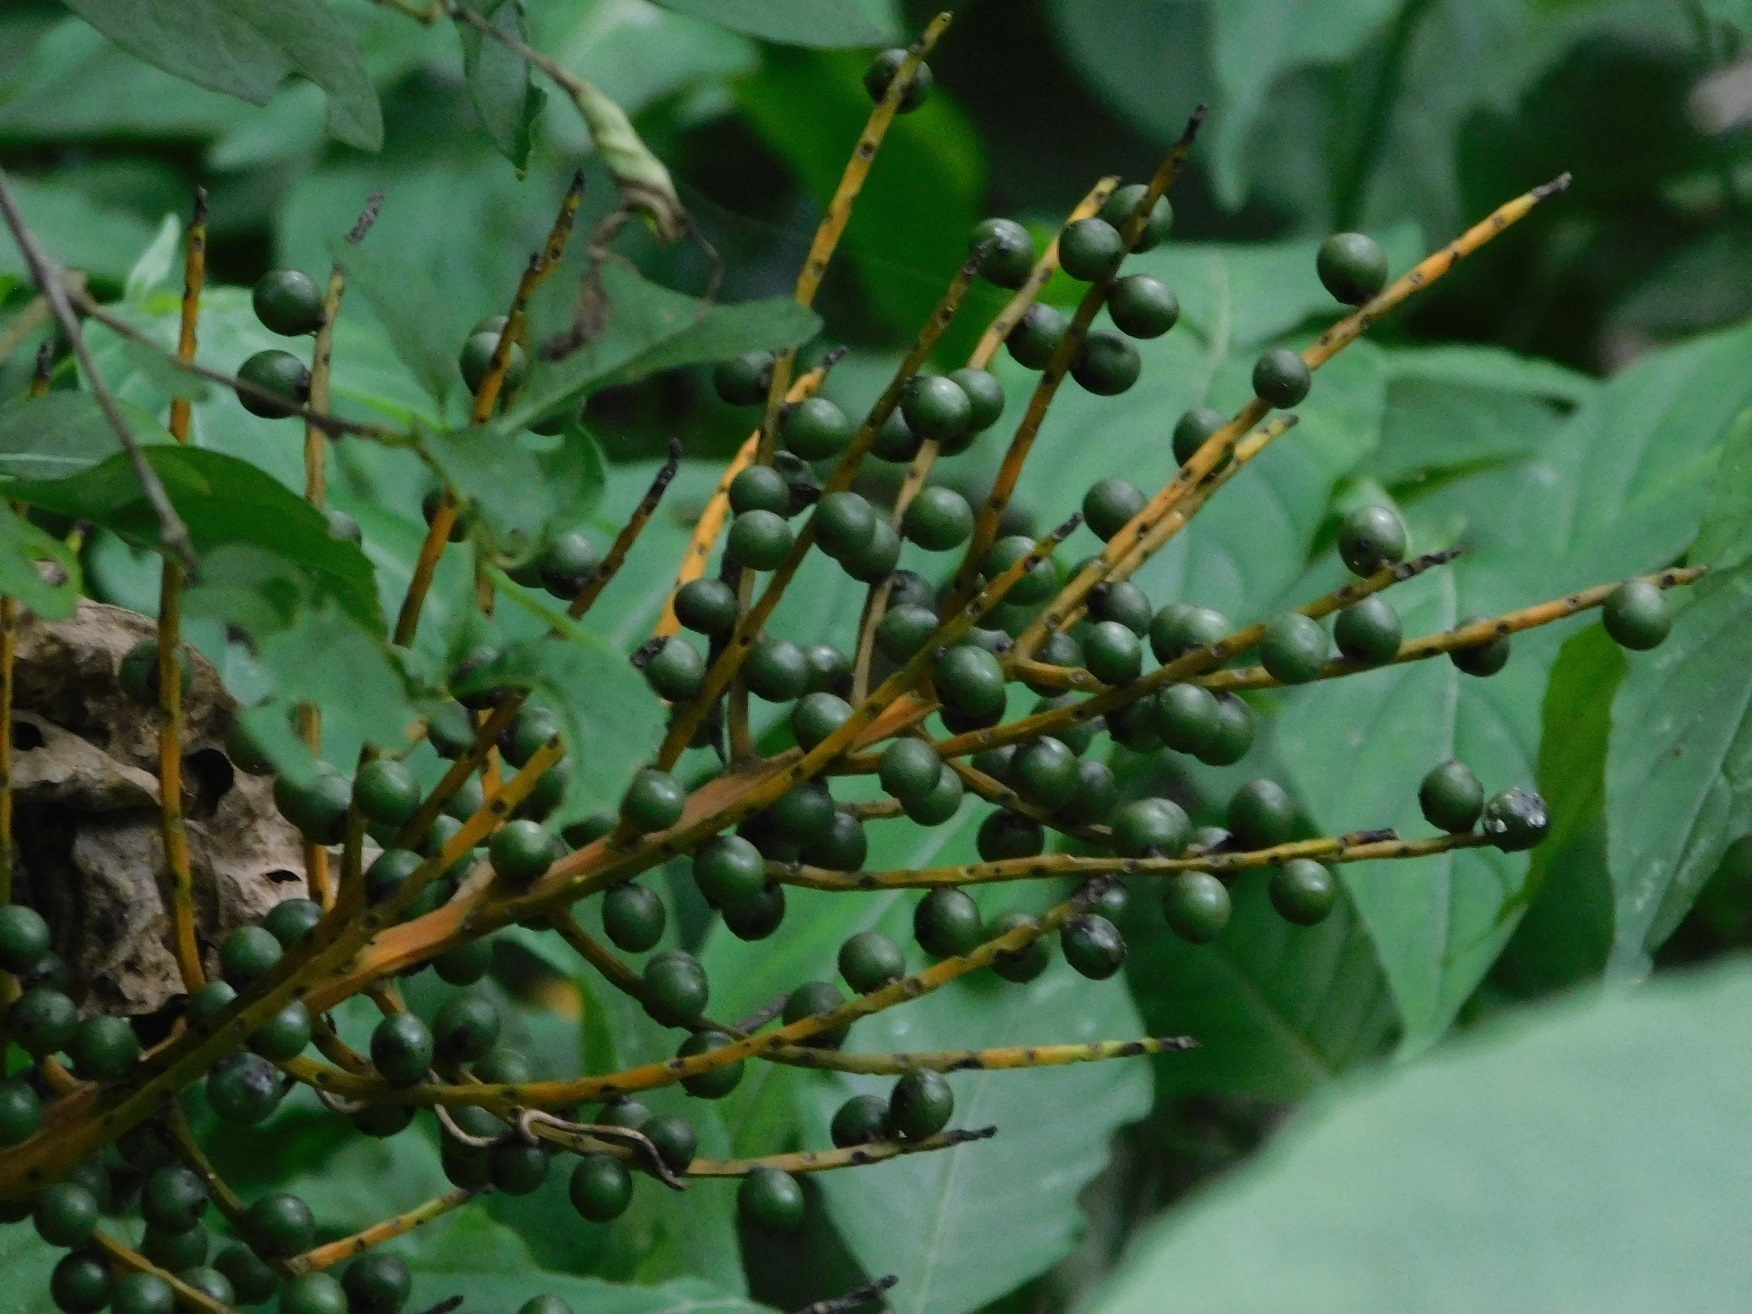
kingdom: Plantae
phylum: Tracheophyta
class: Liliopsida
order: Arecales
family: Arecaceae
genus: Chamaedorea
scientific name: Chamaedorea glaucifolia
